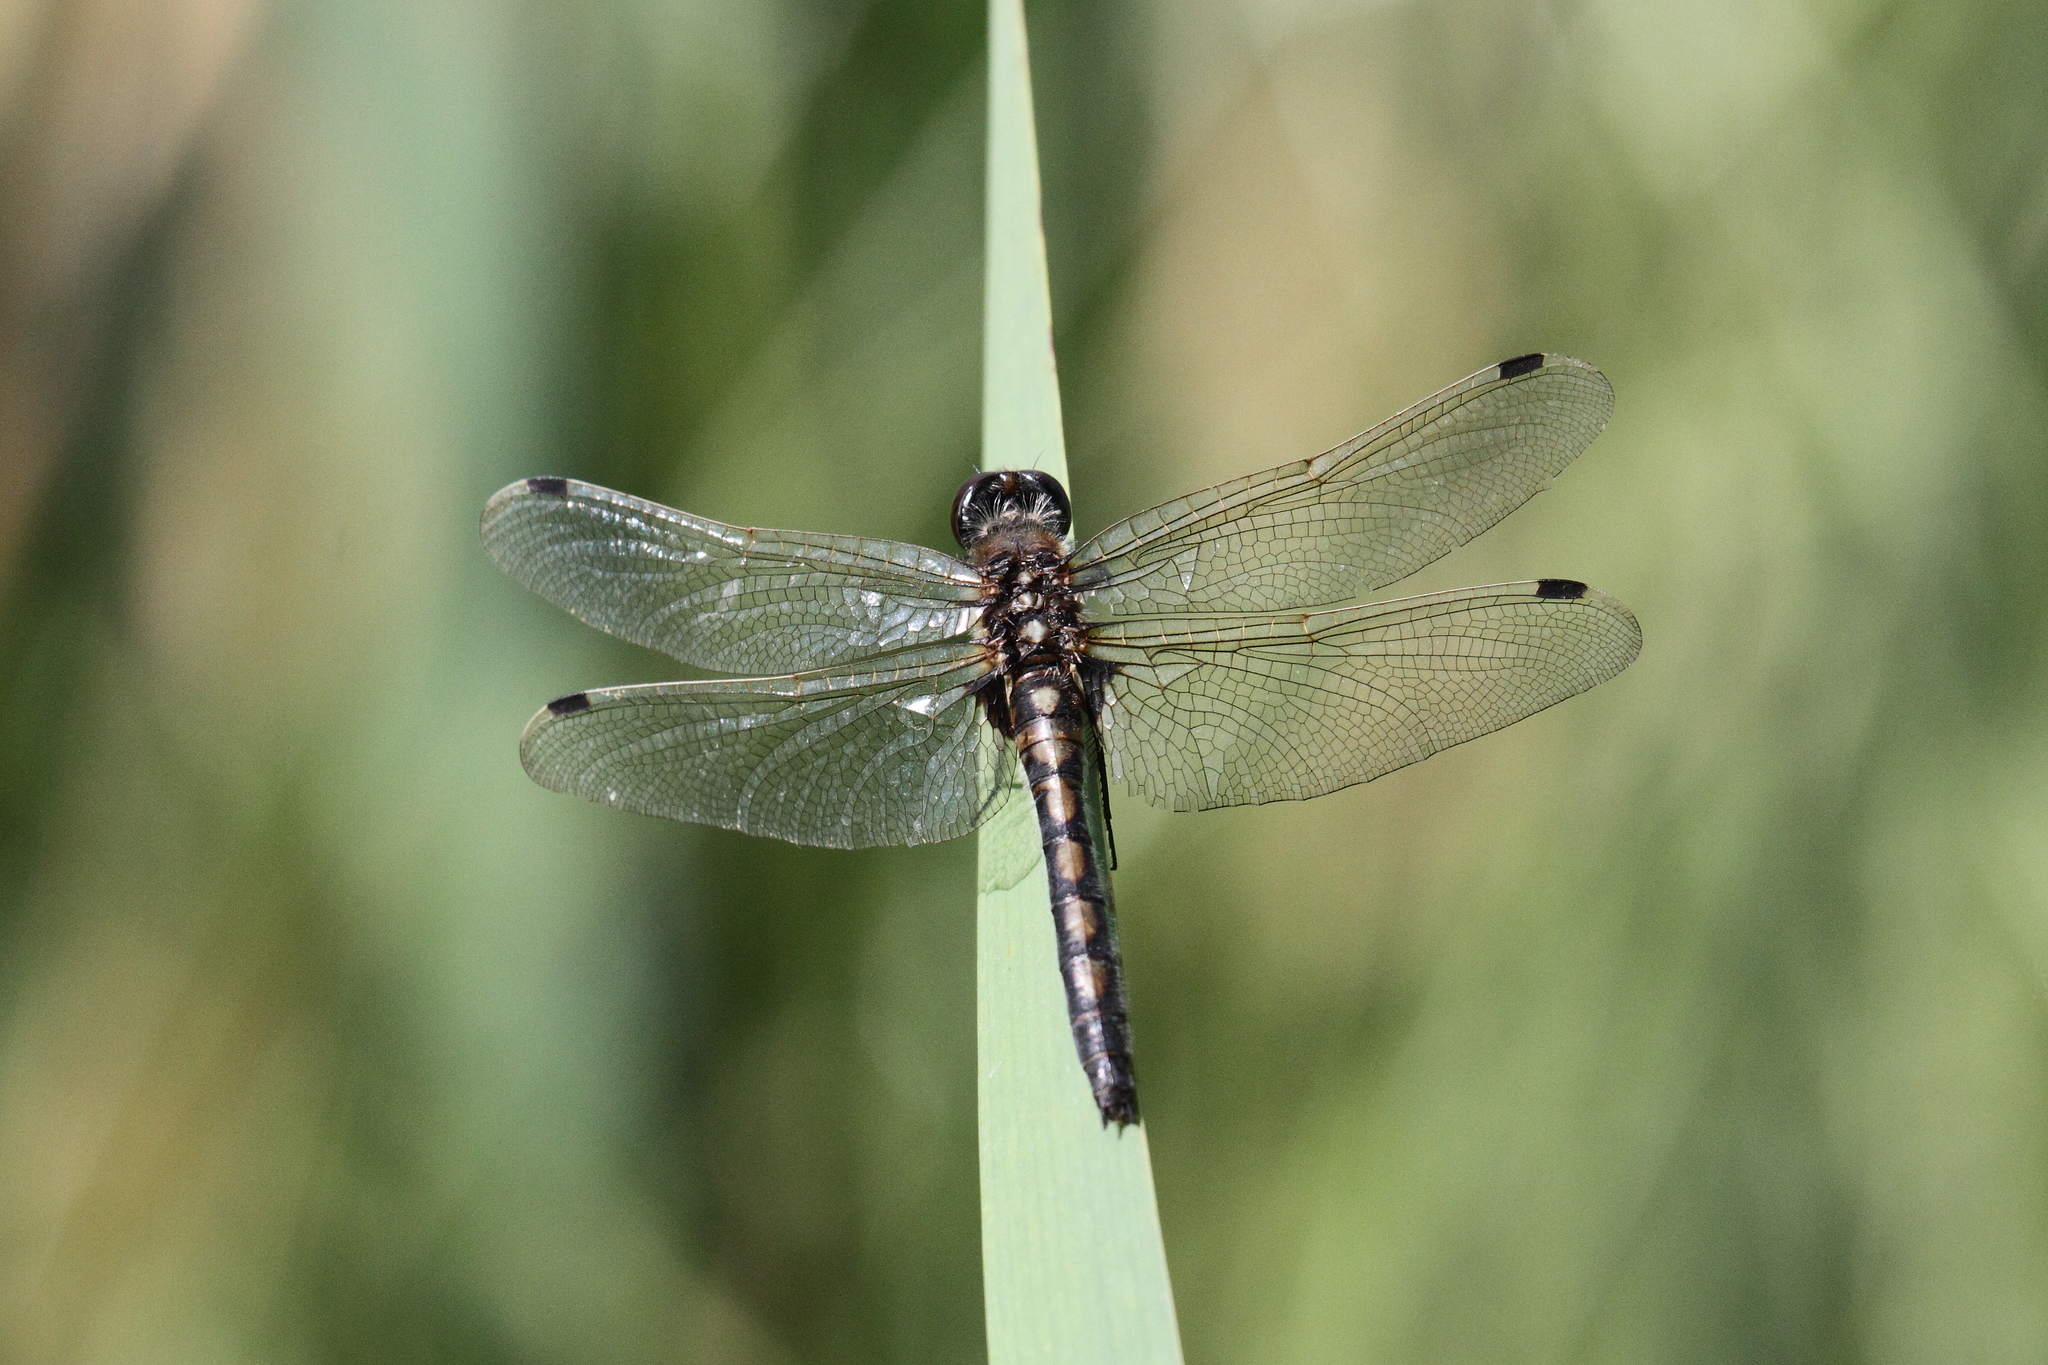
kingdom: Animalia
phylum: Arthropoda
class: Insecta
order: Odonata
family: Libellulidae
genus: Leucorrhinia
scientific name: Leucorrhinia rubicunda
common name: Ruby whiteface
